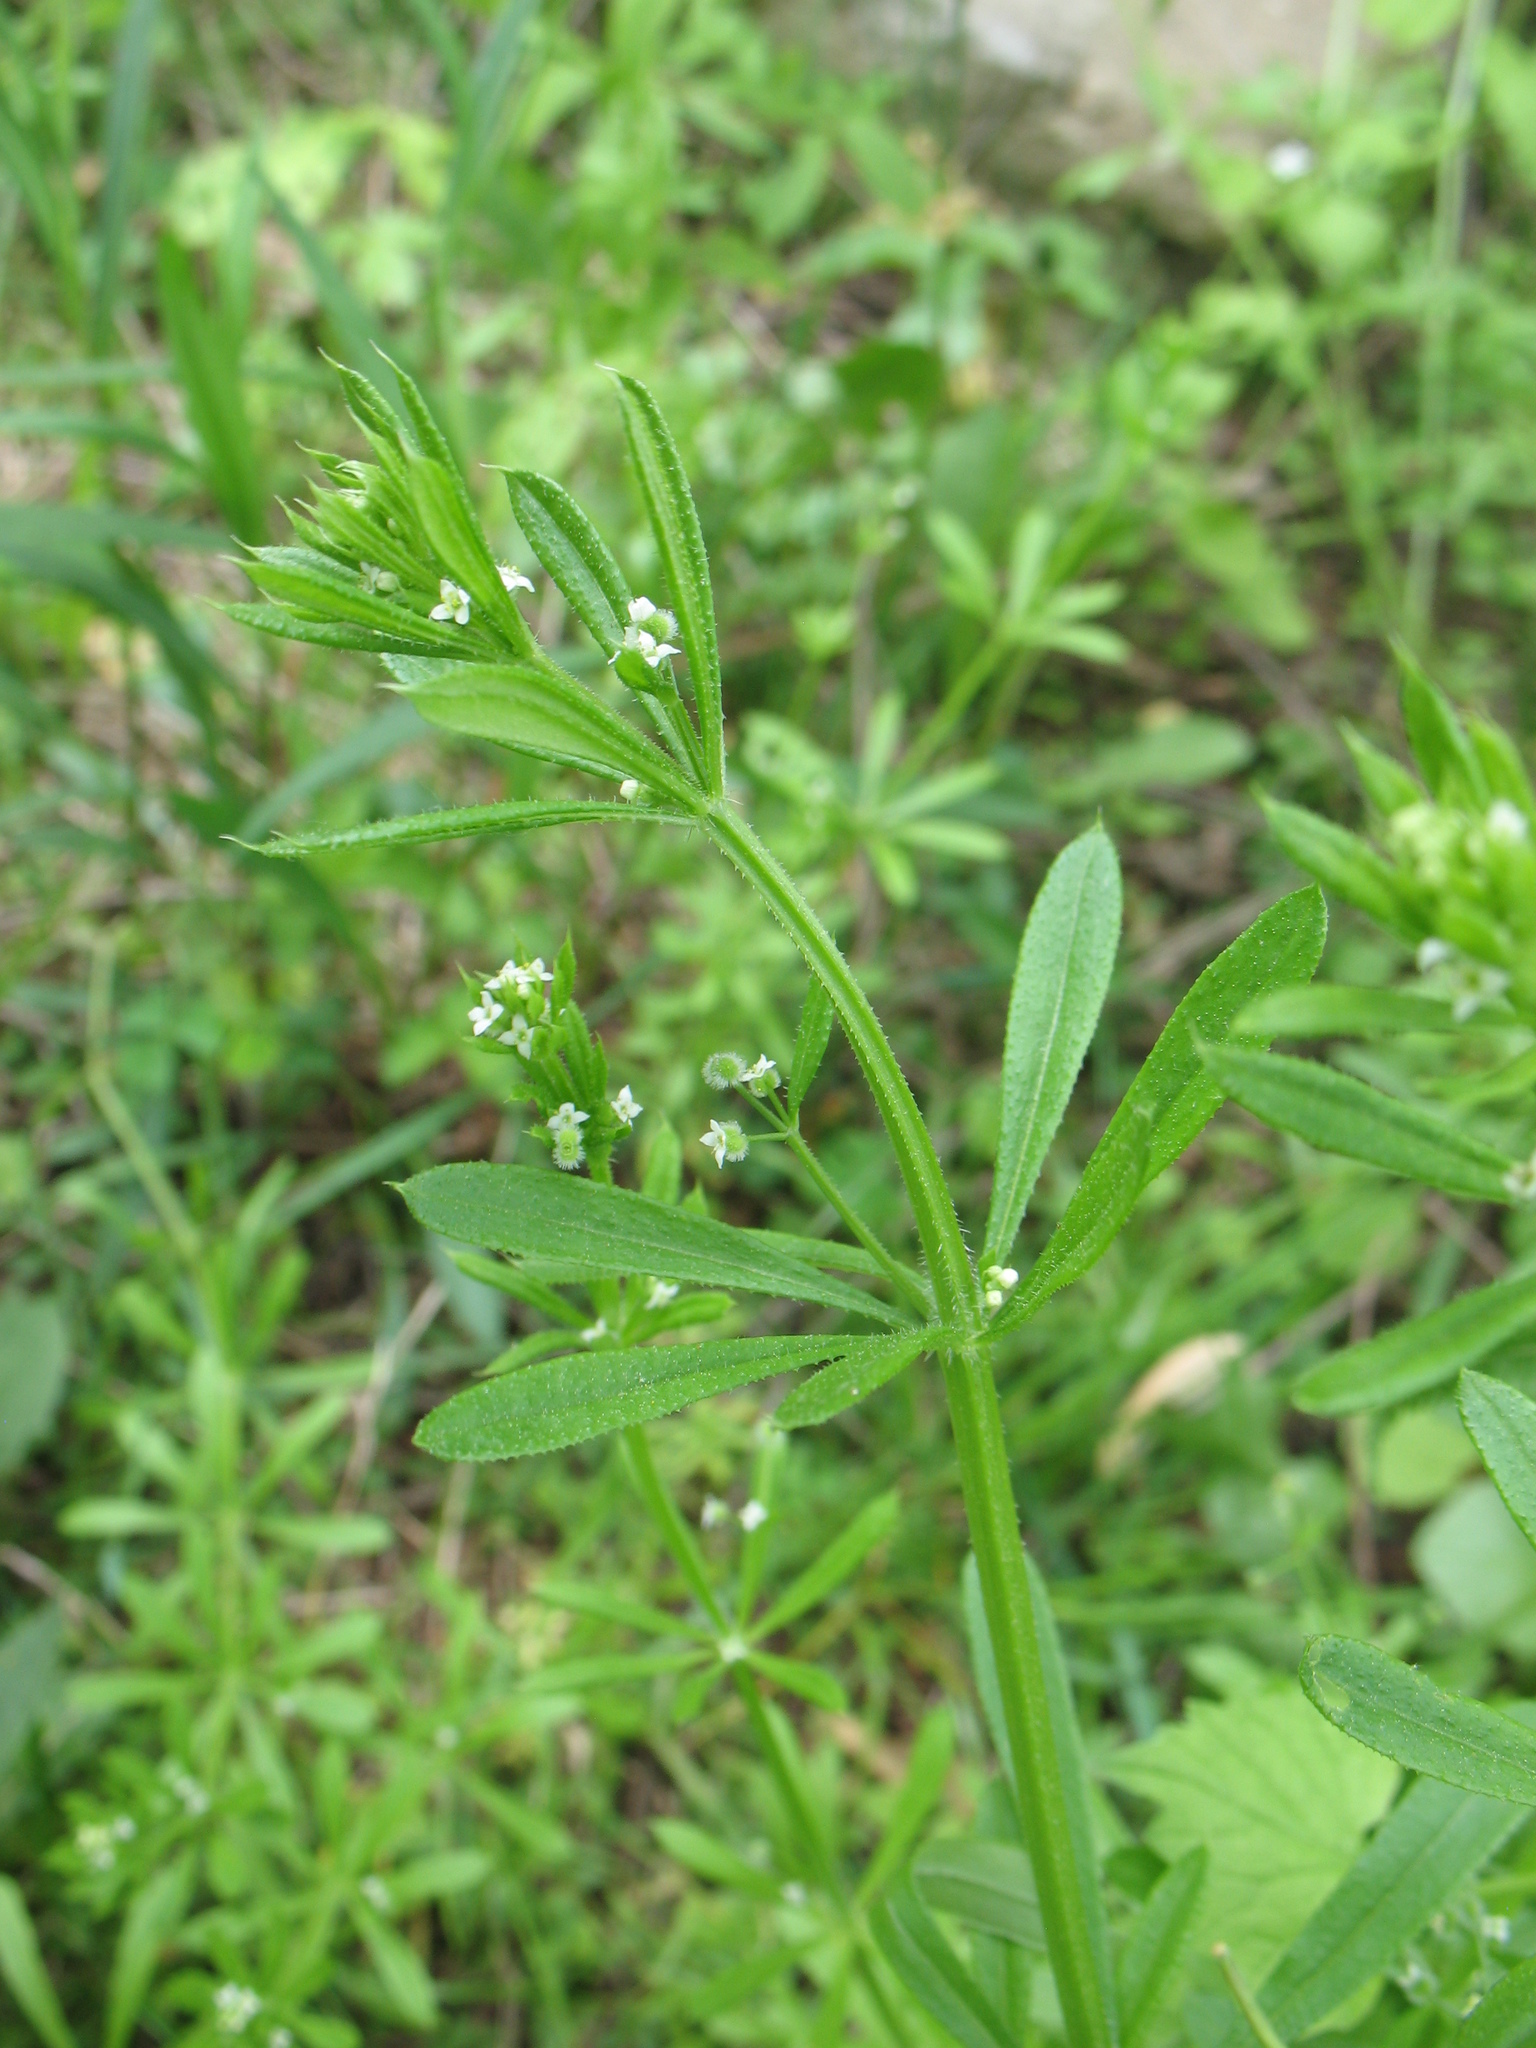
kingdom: Plantae
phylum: Tracheophyta
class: Magnoliopsida
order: Gentianales
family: Rubiaceae
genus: Galium
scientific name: Galium aparine
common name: Cleavers
